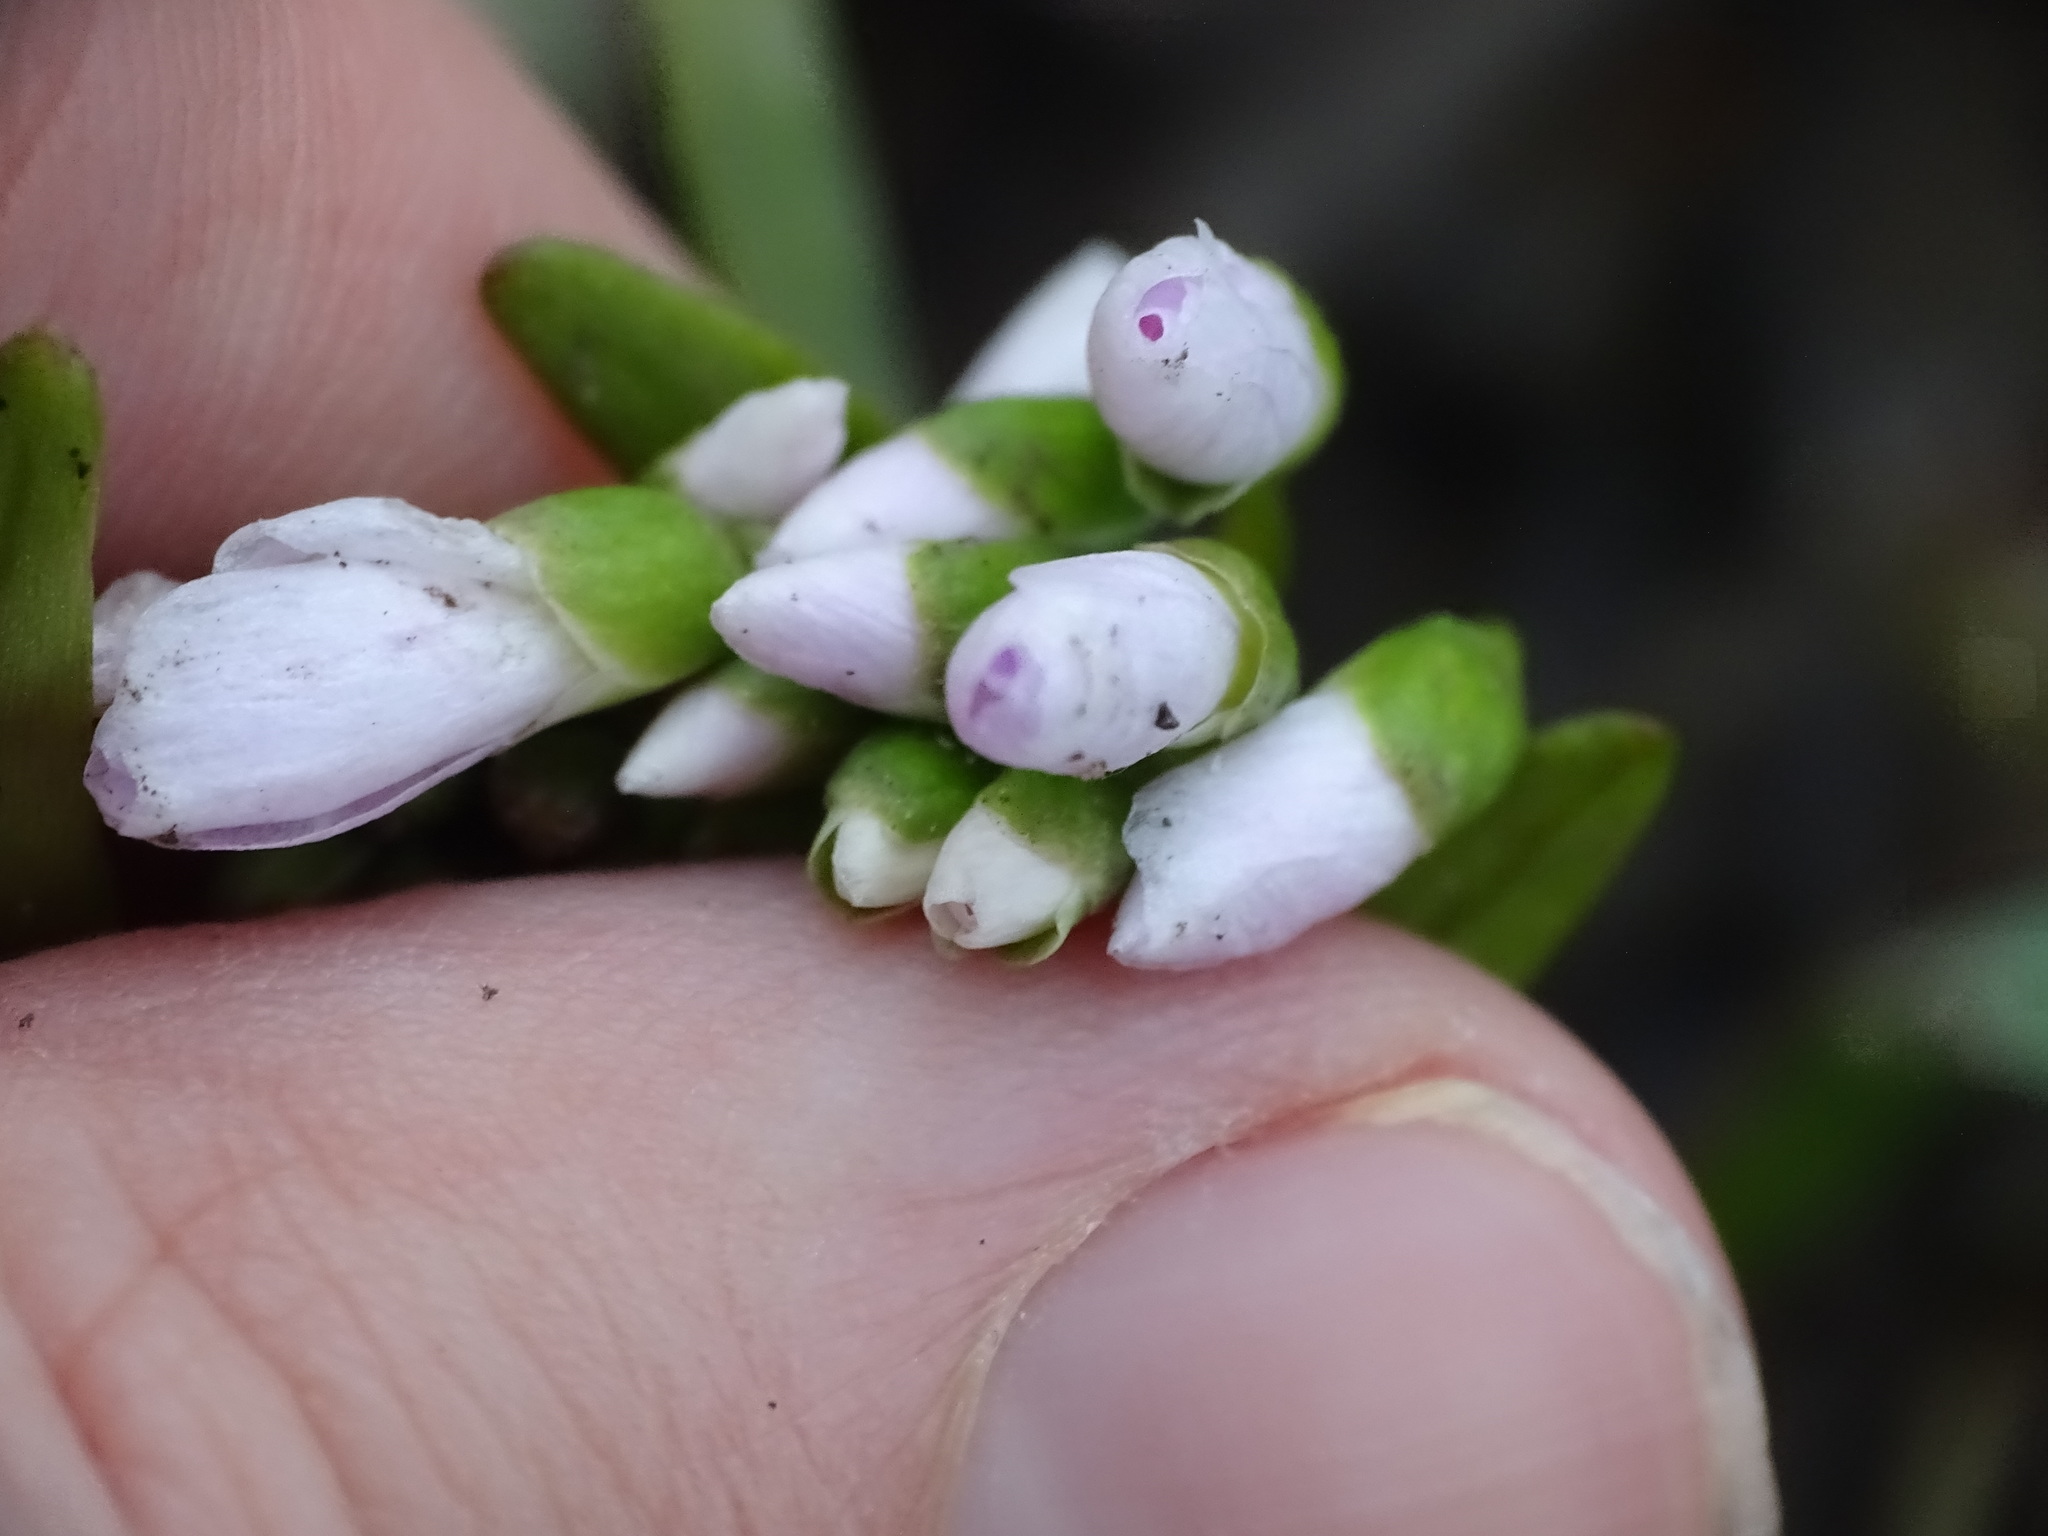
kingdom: Plantae
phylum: Tracheophyta
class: Magnoliopsida
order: Caryophyllales
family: Montiaceae
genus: Claytonia
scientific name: Claytonia virginica
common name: Virginia springbeauty
